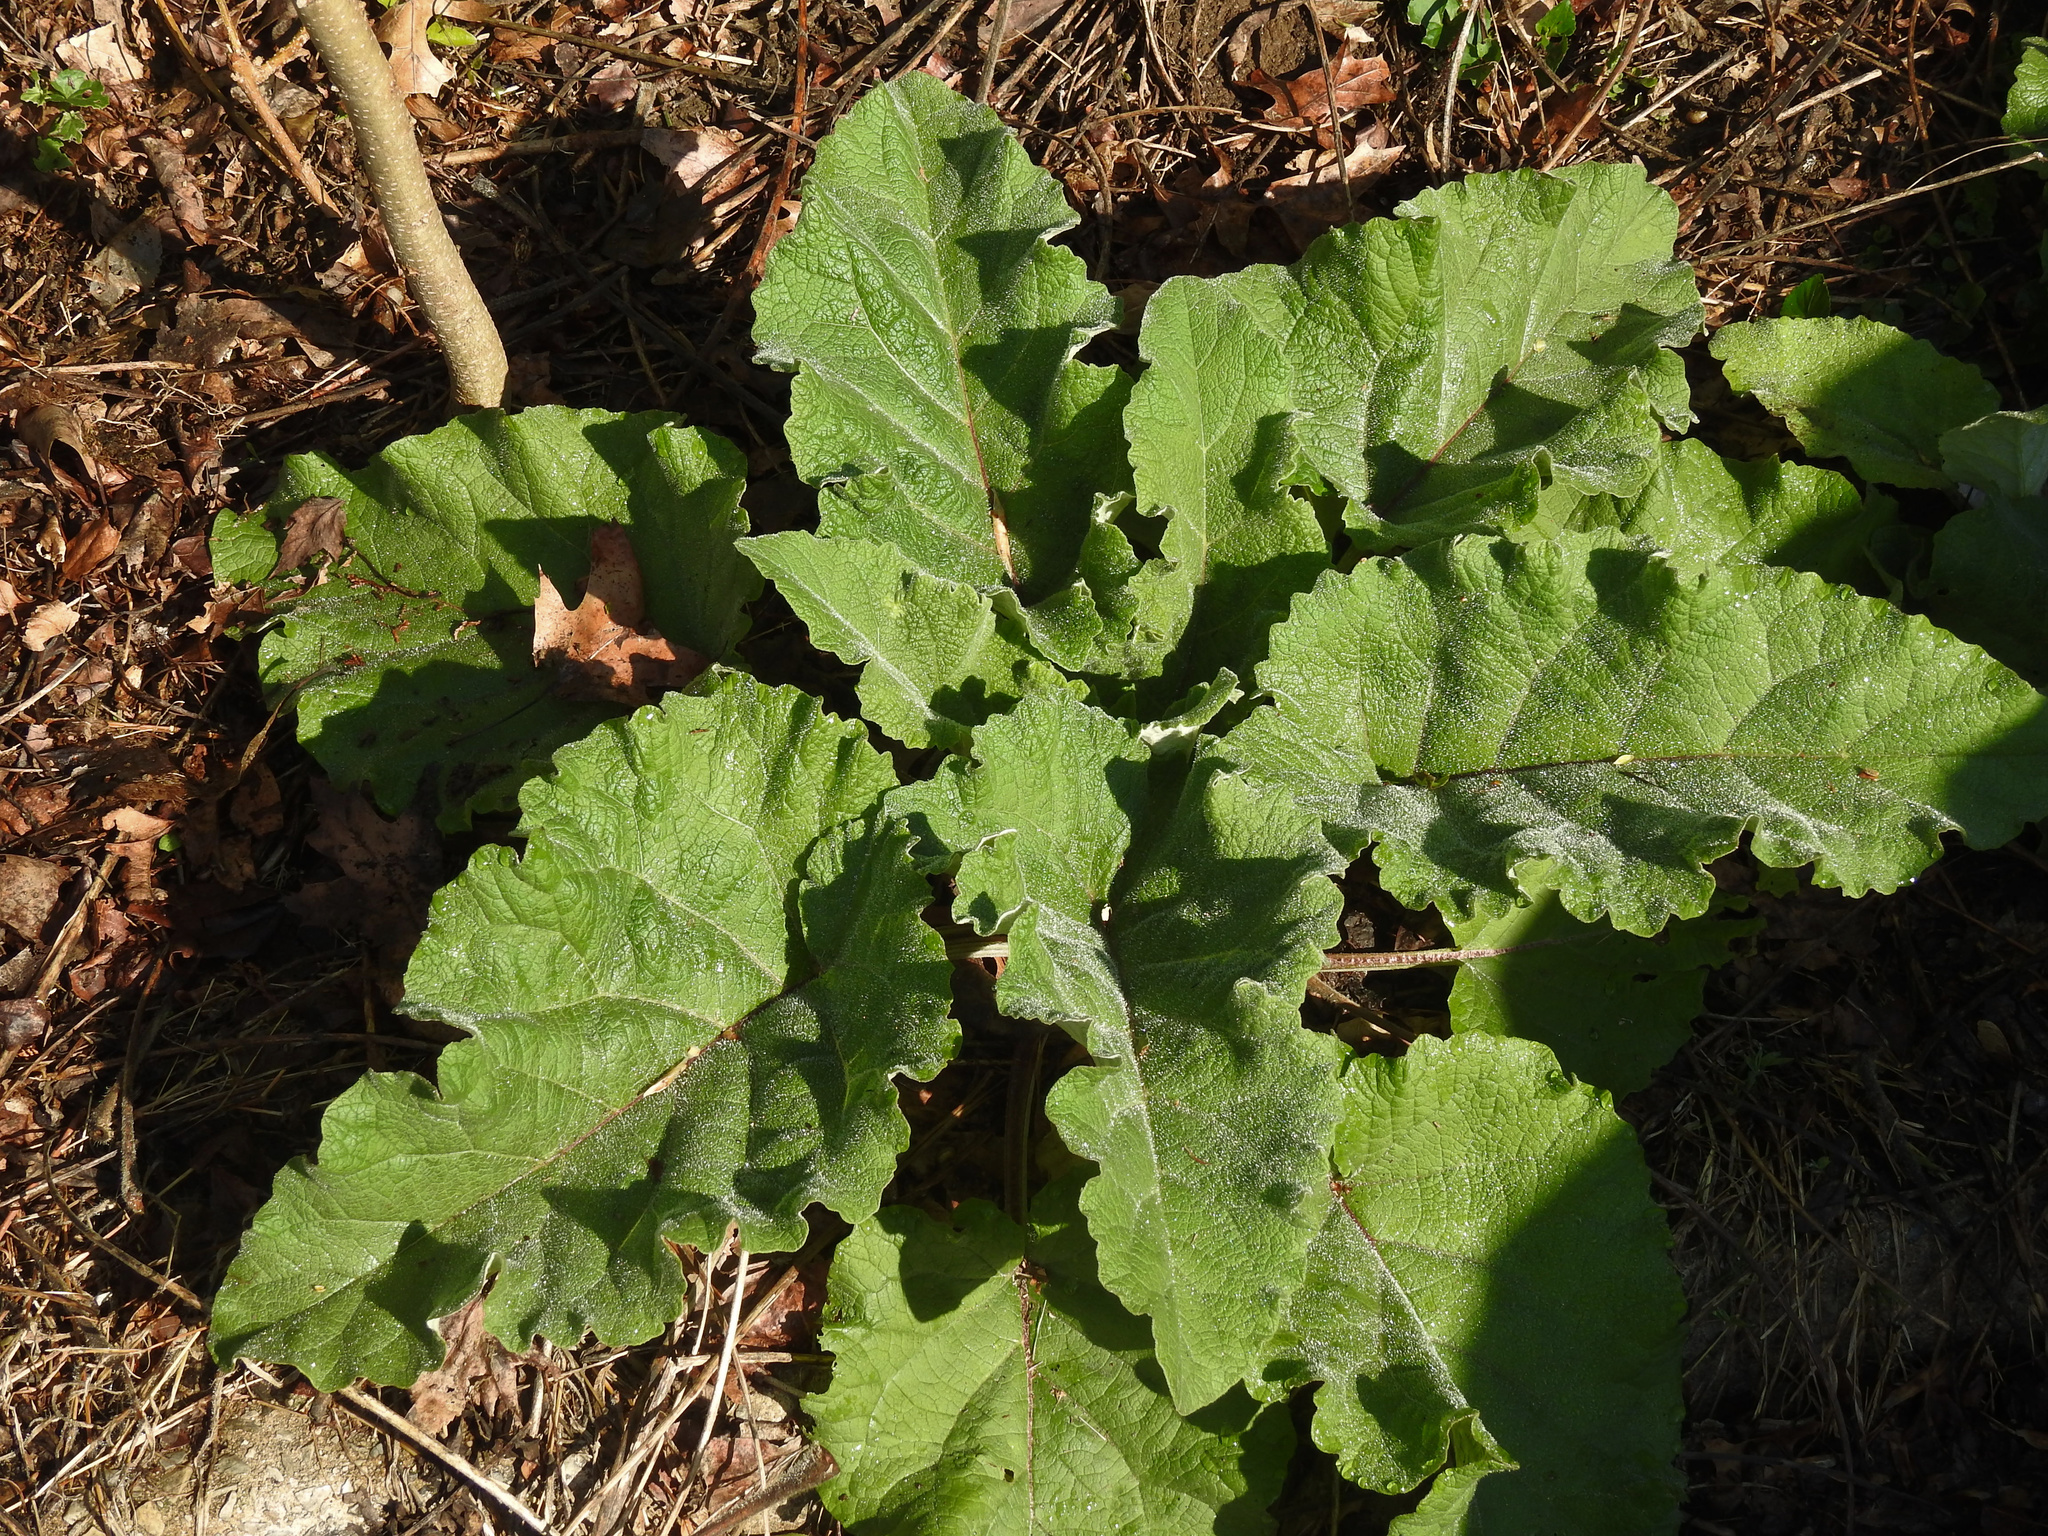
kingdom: Plantae
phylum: Tracheophyta
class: Magnoliopsida
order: Asterales
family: Asteraceae
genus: Arctium
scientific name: Arctium lappa
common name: Greater burdock
